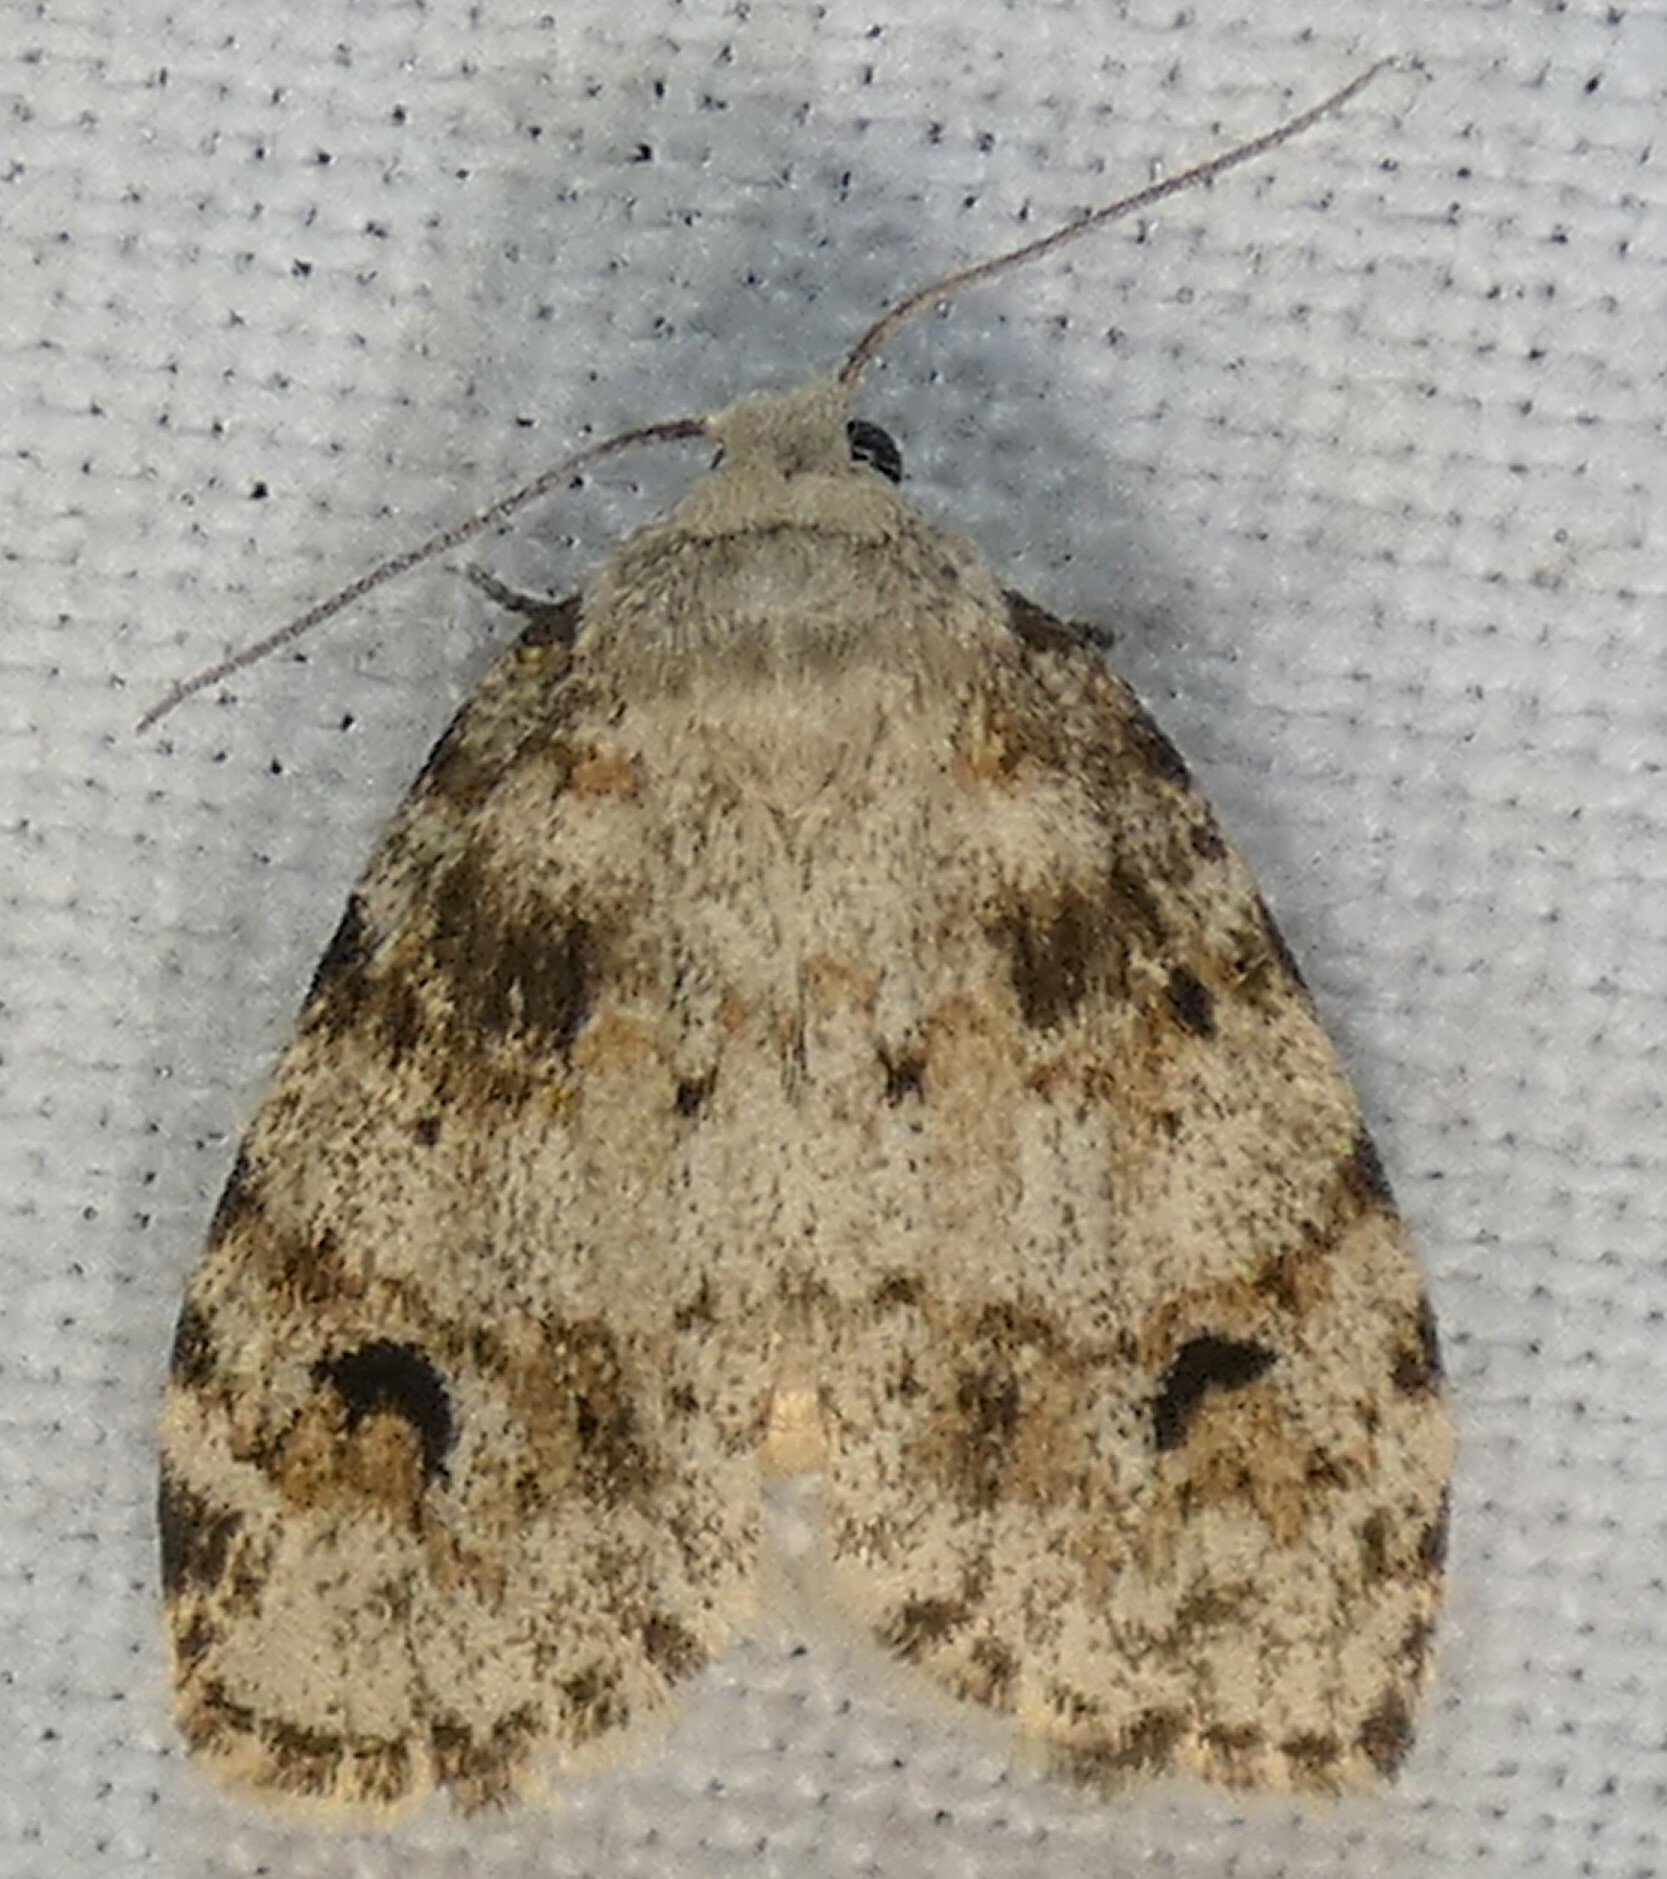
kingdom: Animalia
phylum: Arthropoda
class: Insecta
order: Lepidoptera
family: Erebidae
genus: Clemensia
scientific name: Clemensia ochreata
